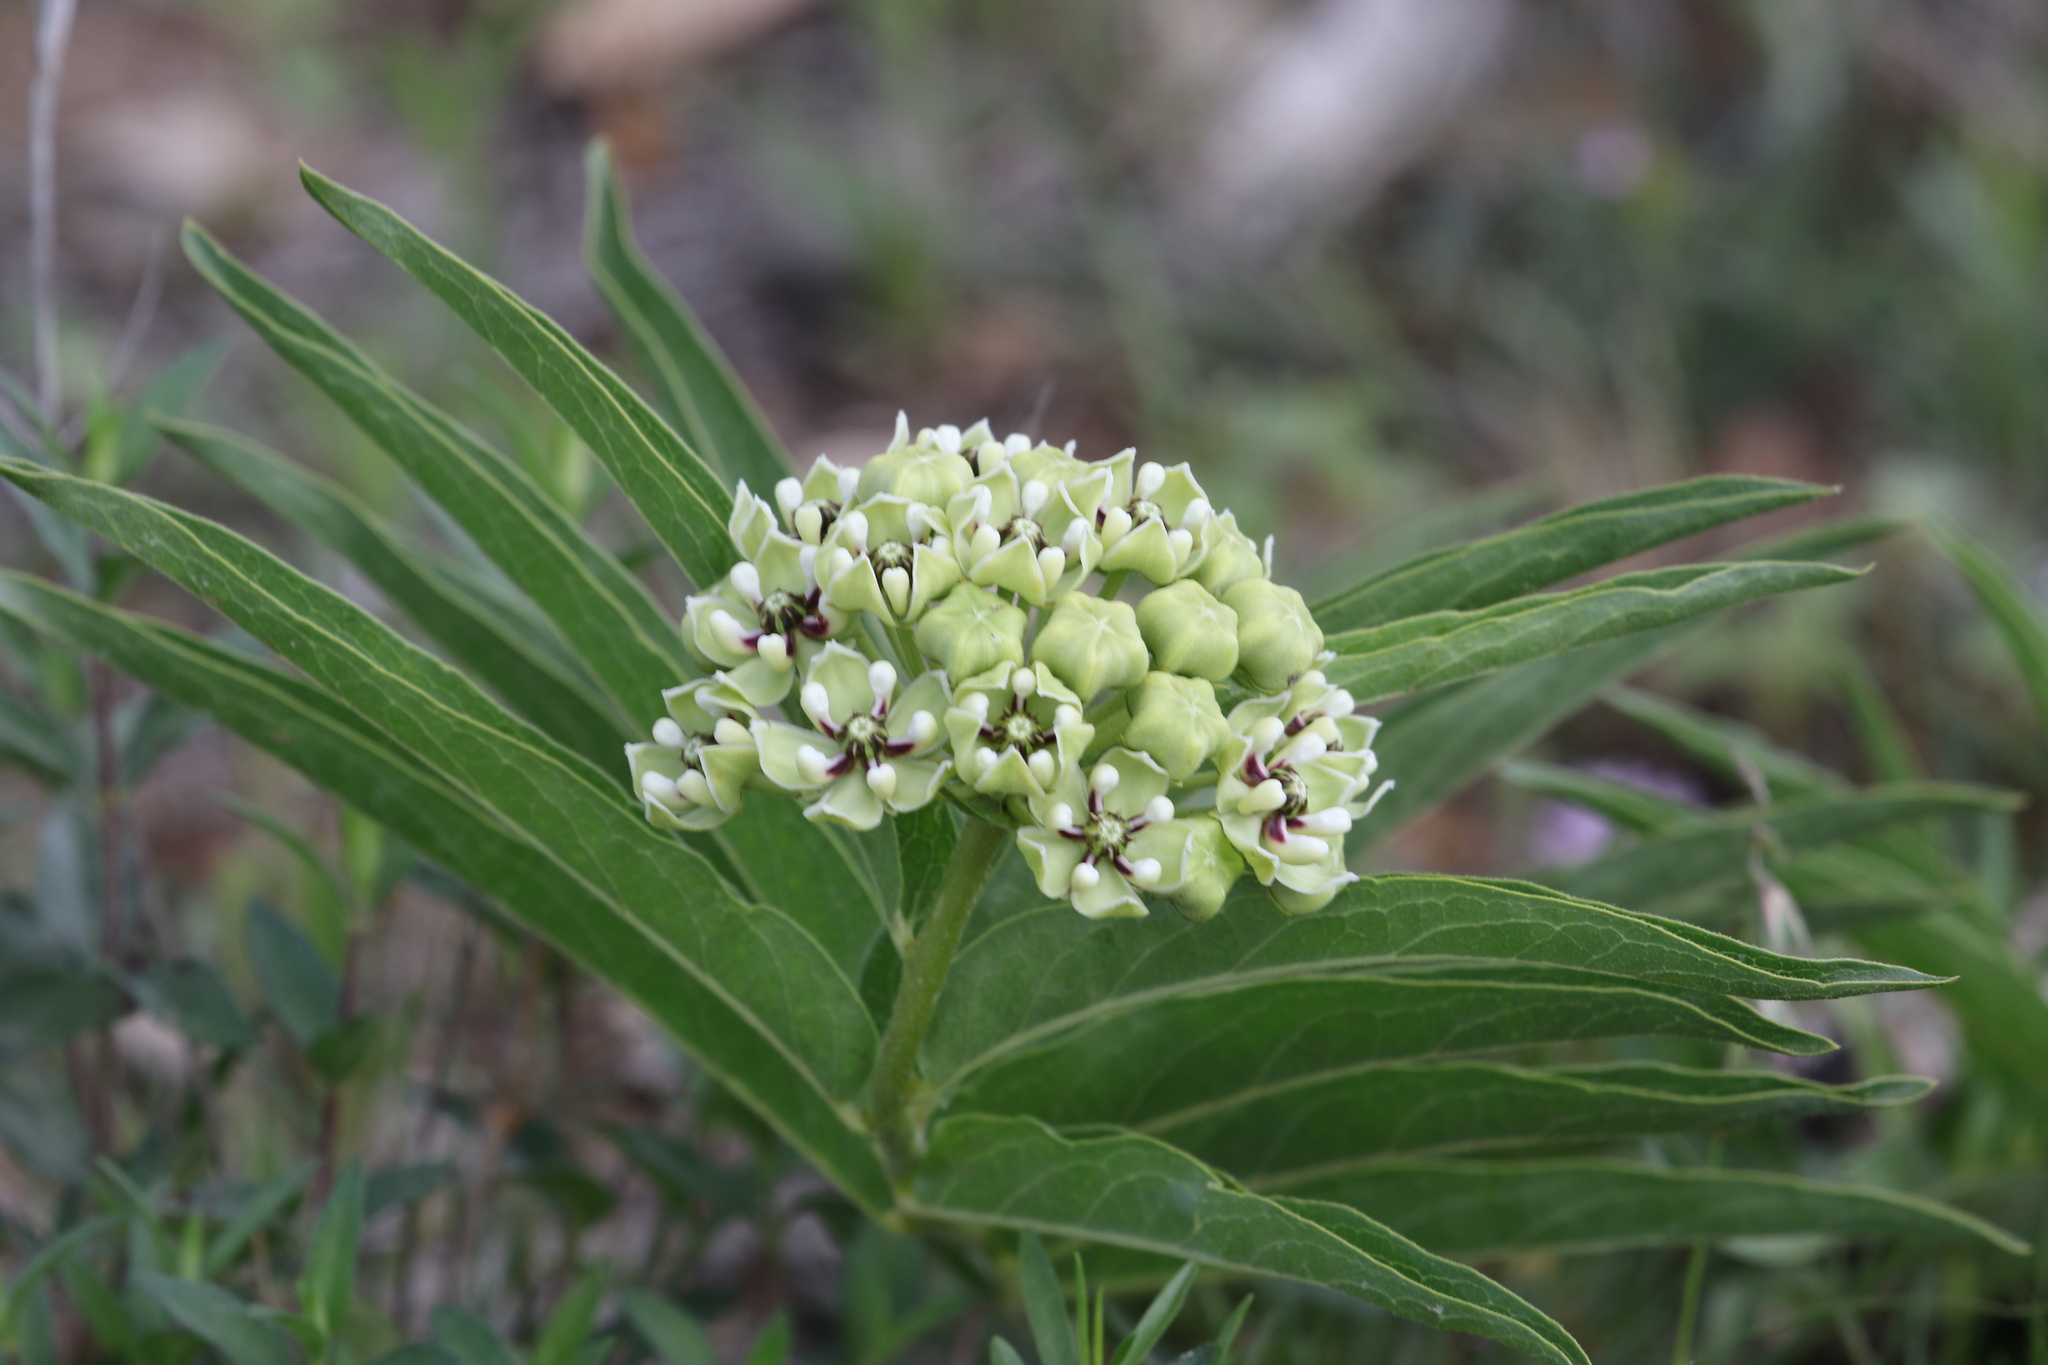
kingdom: Plantae
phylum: Tracheophyta
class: Magnoliopsida
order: Gentianales
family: Apocynaceae
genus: Asclepias
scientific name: Asclepias asperula
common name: Antelope horns
